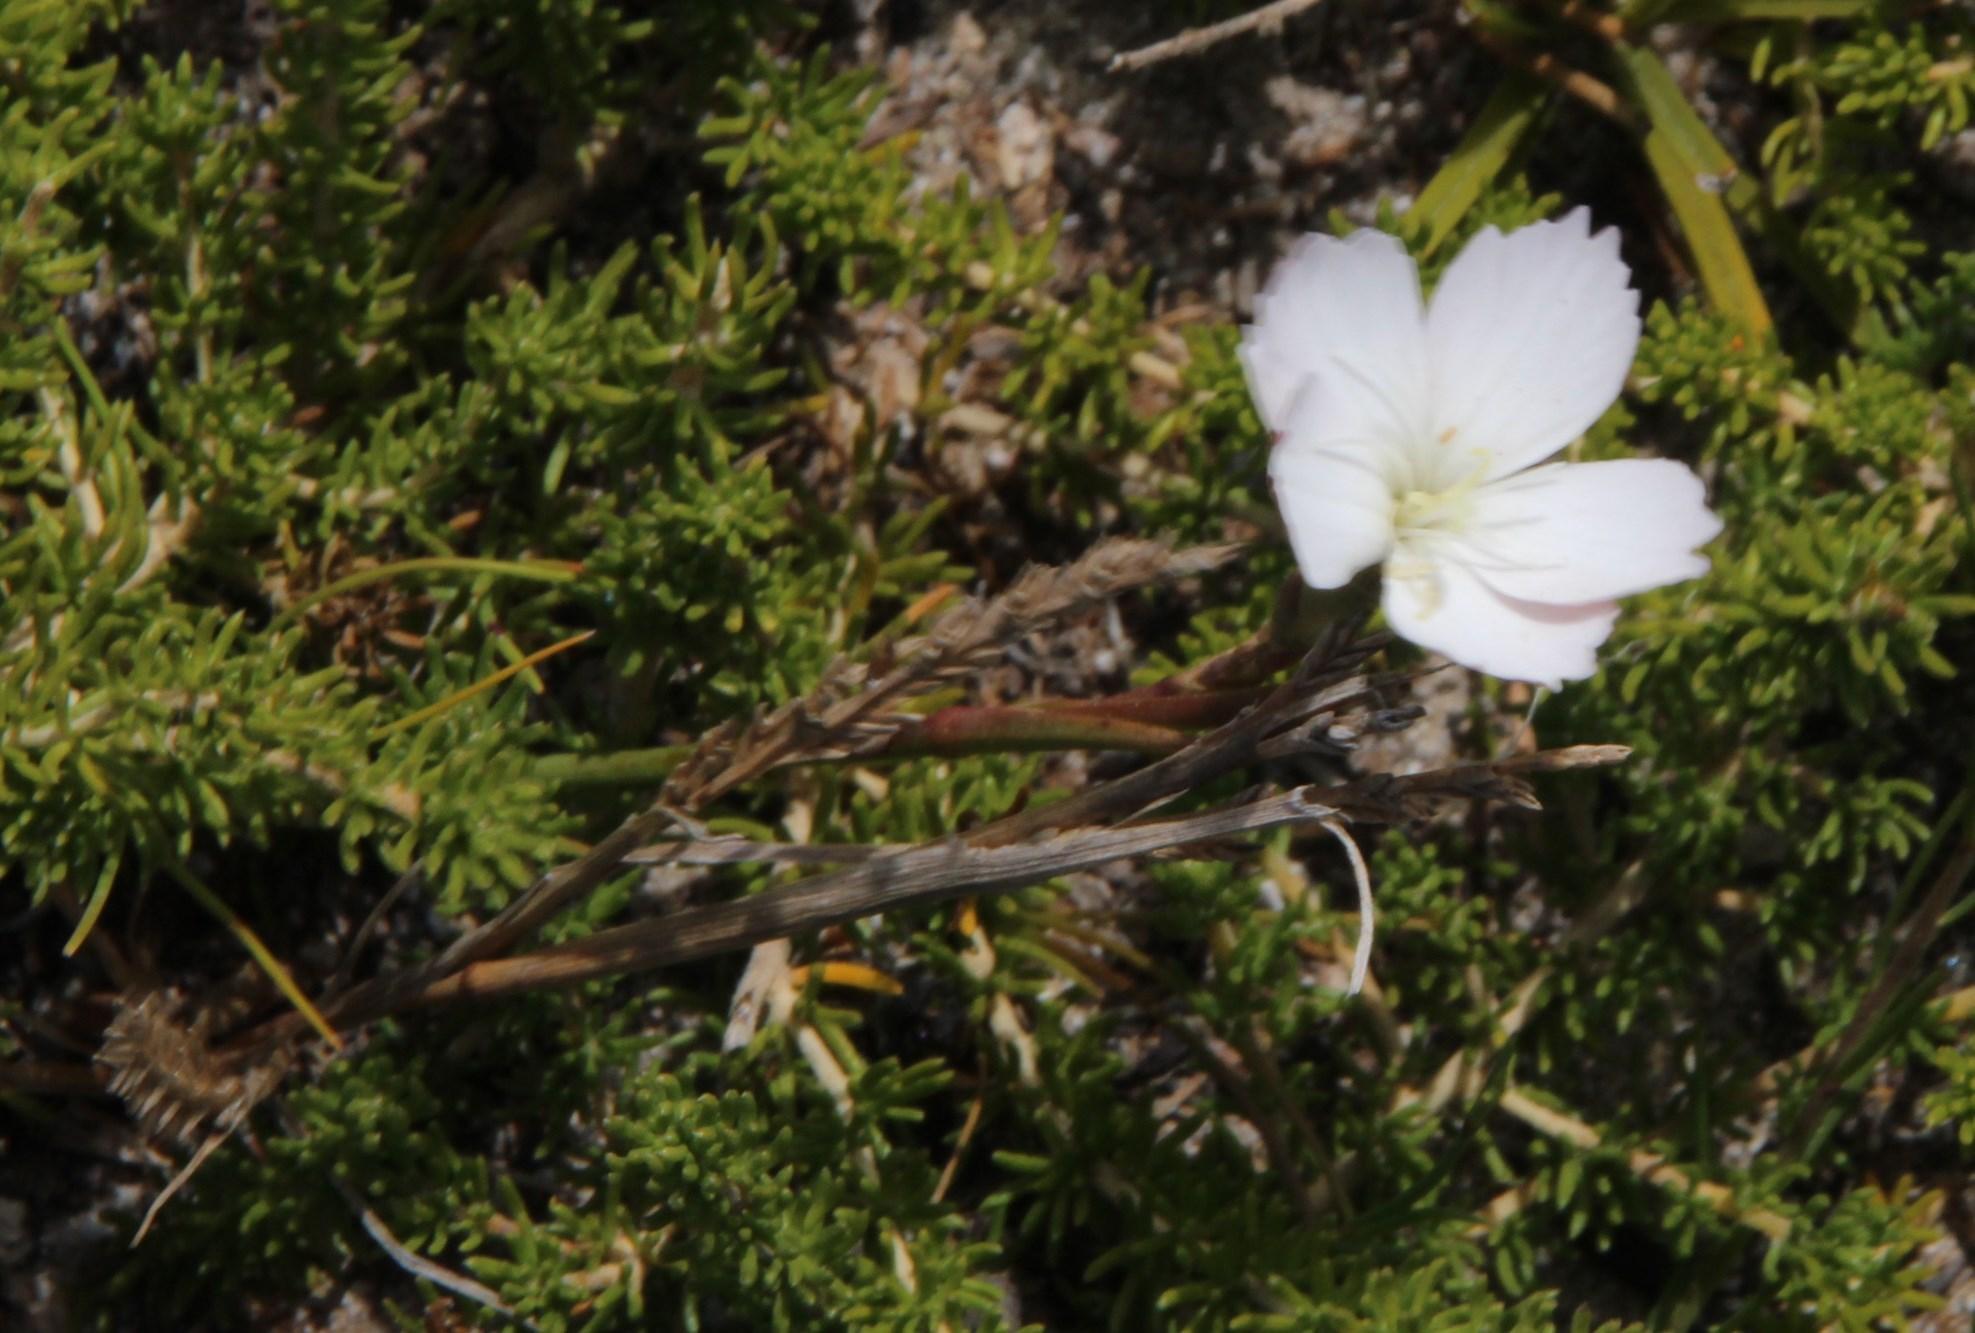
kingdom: Plantae
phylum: Tracheophyta
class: Magnoliopsida
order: Caryophyllales
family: Caryophyllaceae
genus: Dianthus
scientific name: Dianthus albens
